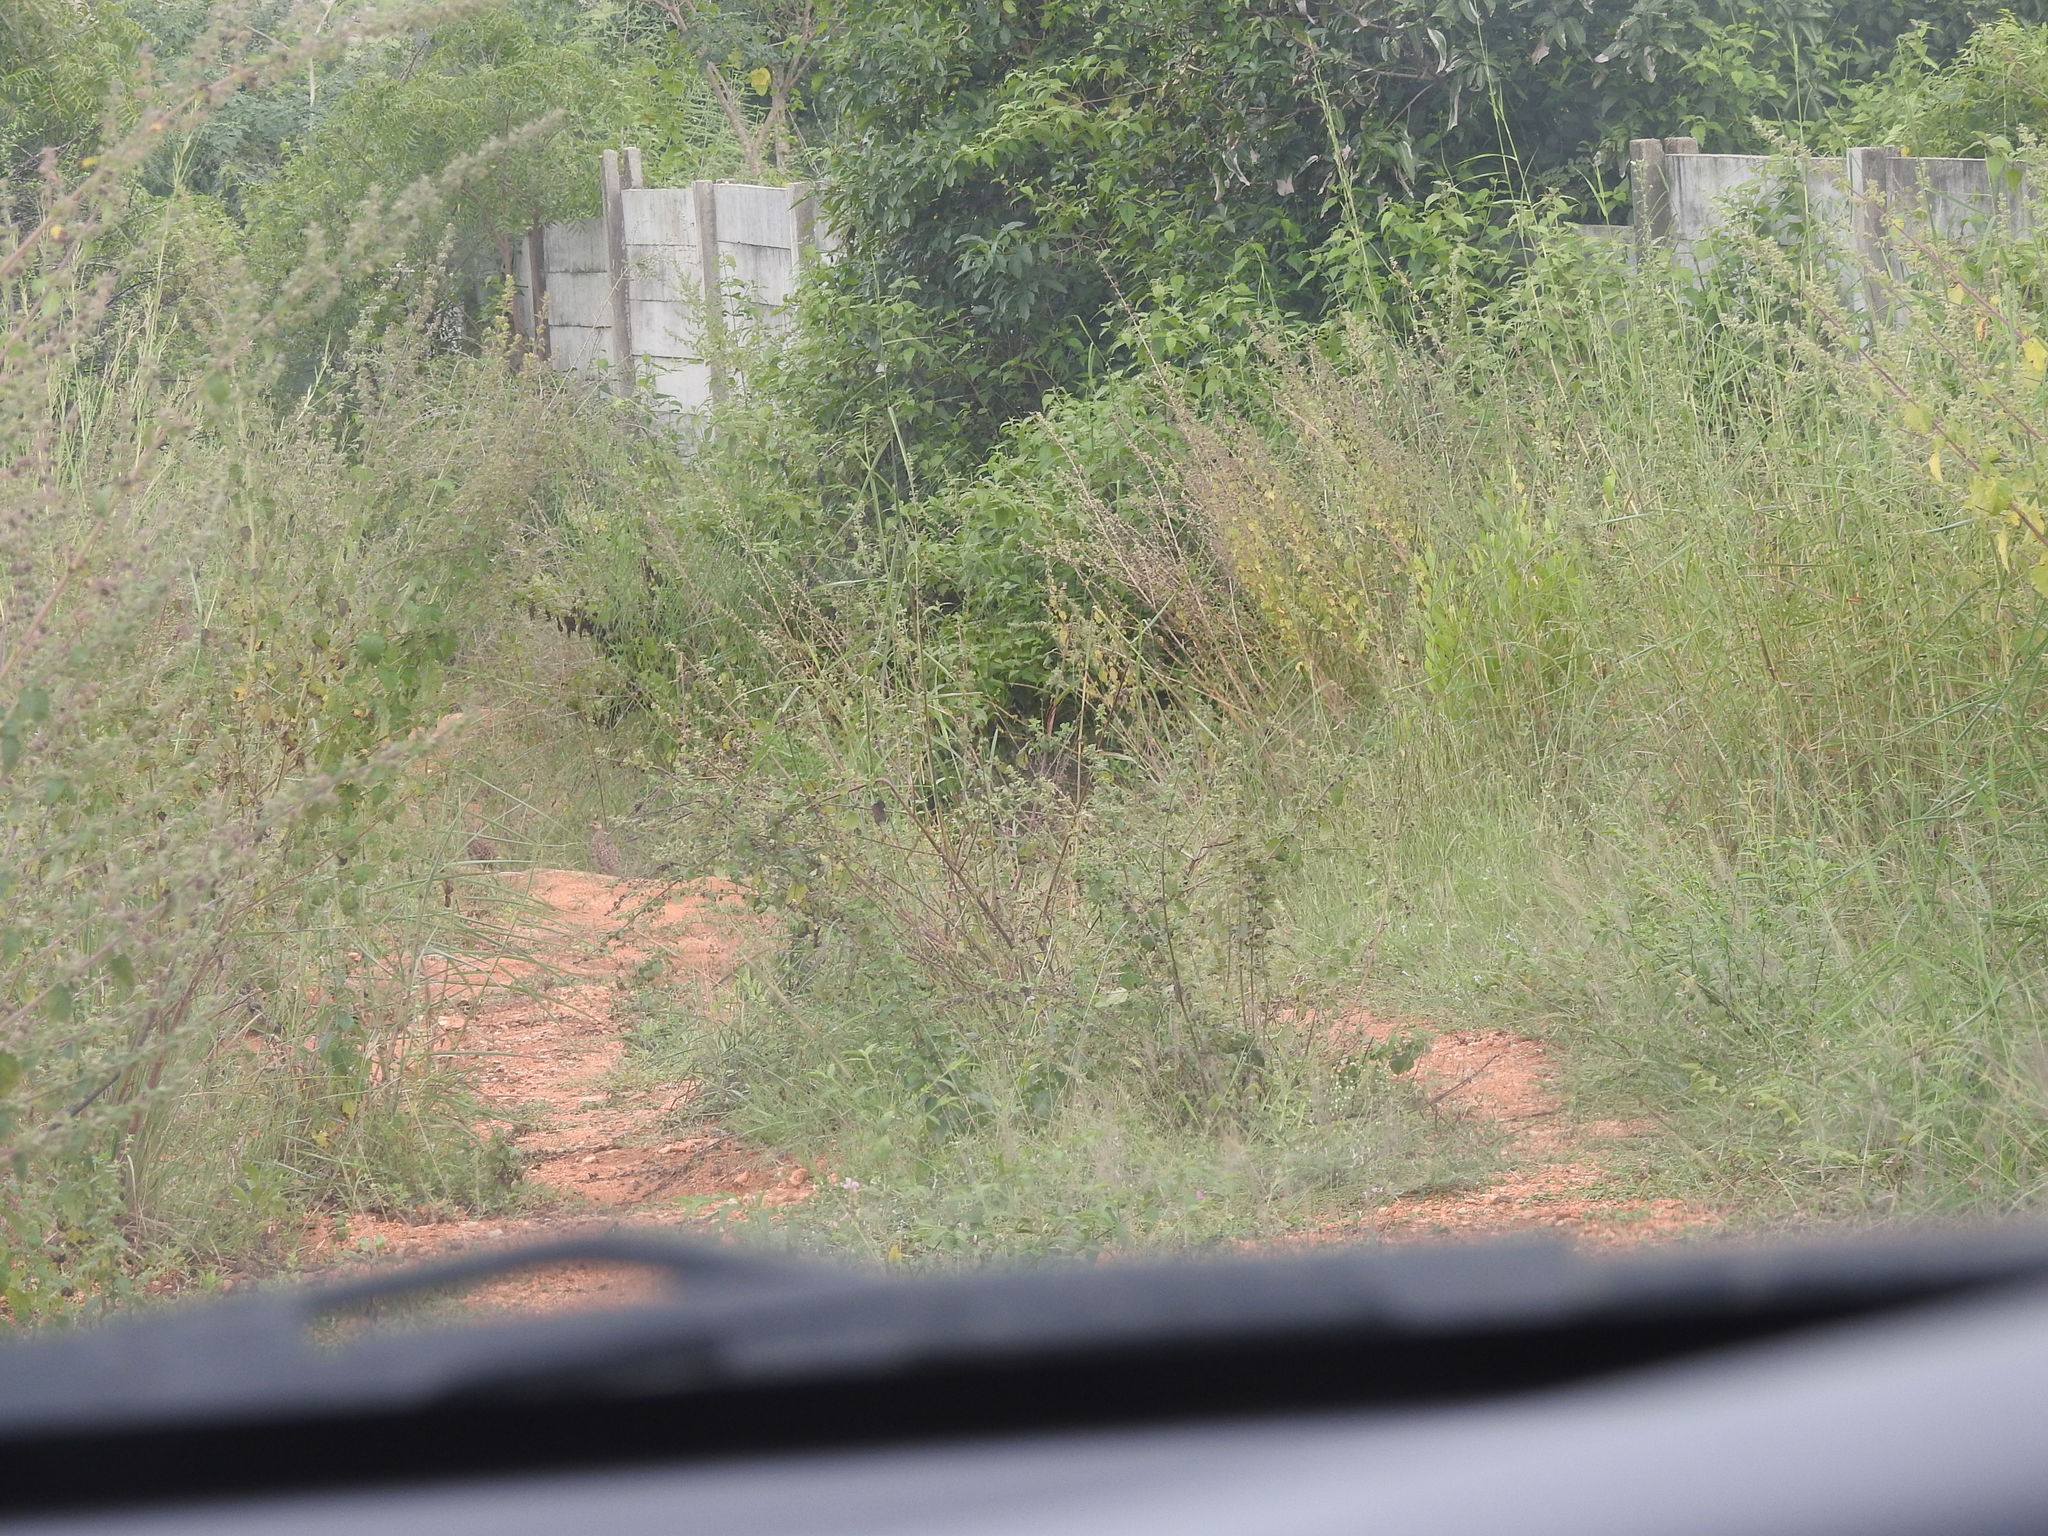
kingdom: Animalia
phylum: Chordata
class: Aves
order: Galliformes
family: Phasianidae
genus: Ortygornis
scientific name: Ortygornis pondicerianus
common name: Grey francolin
